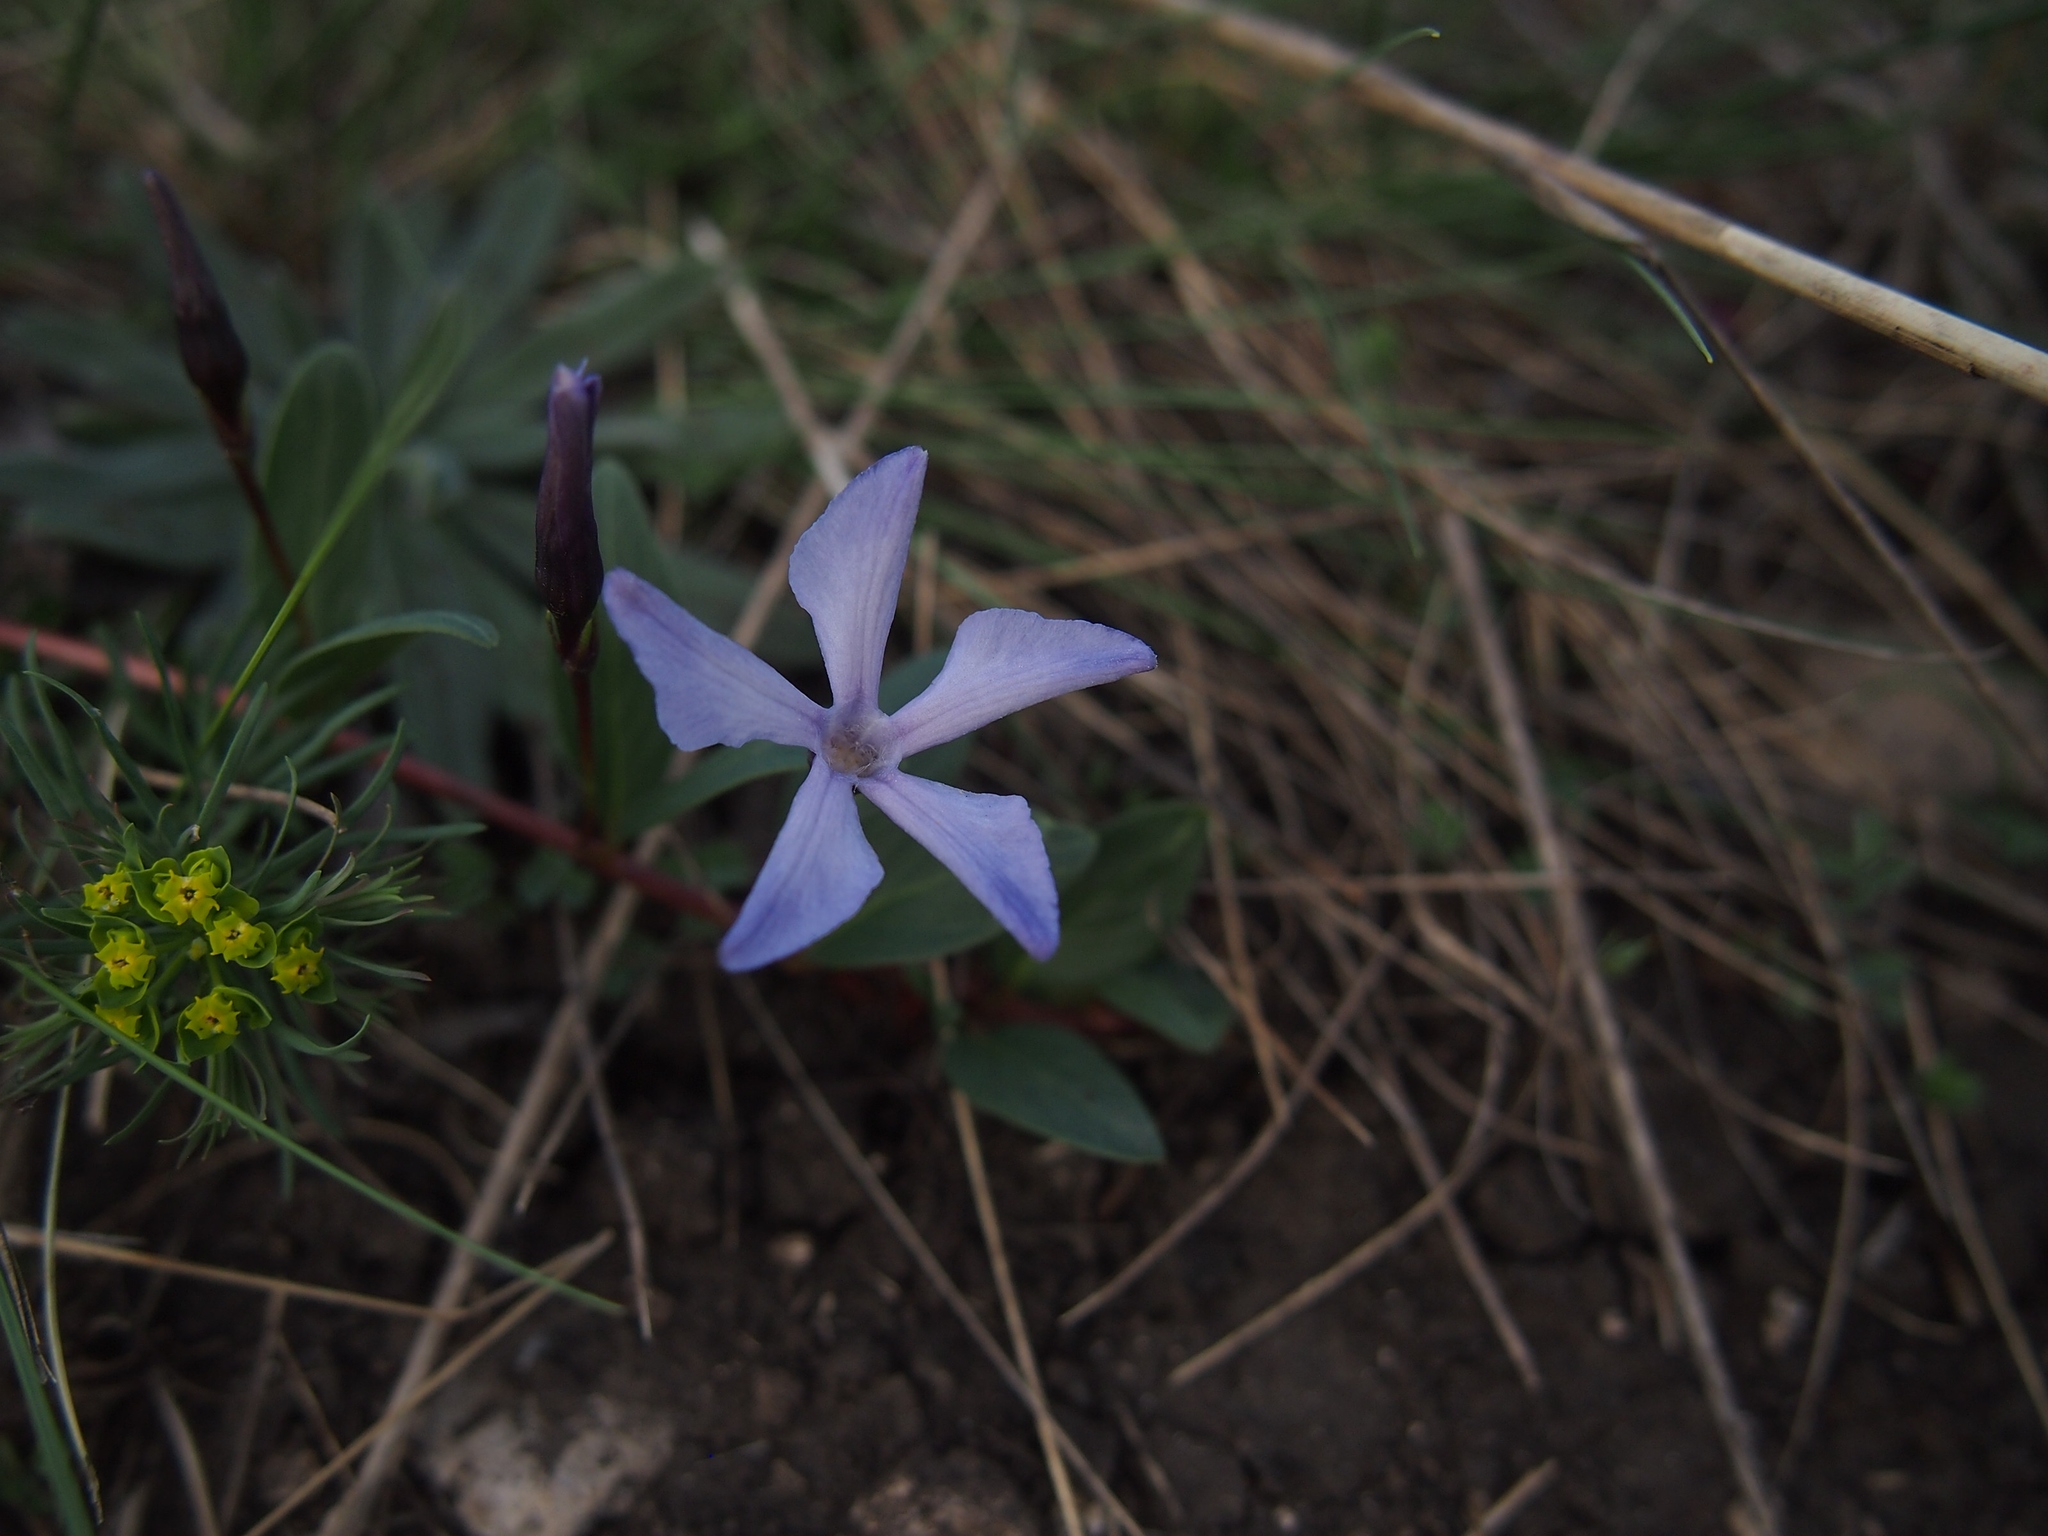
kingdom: Plantae
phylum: Tracheophyta
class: Magnoliopsida
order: Gentianales
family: Apocynaceae
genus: Vinca
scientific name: Vinca herbacea
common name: Herbaceous periwinkle
